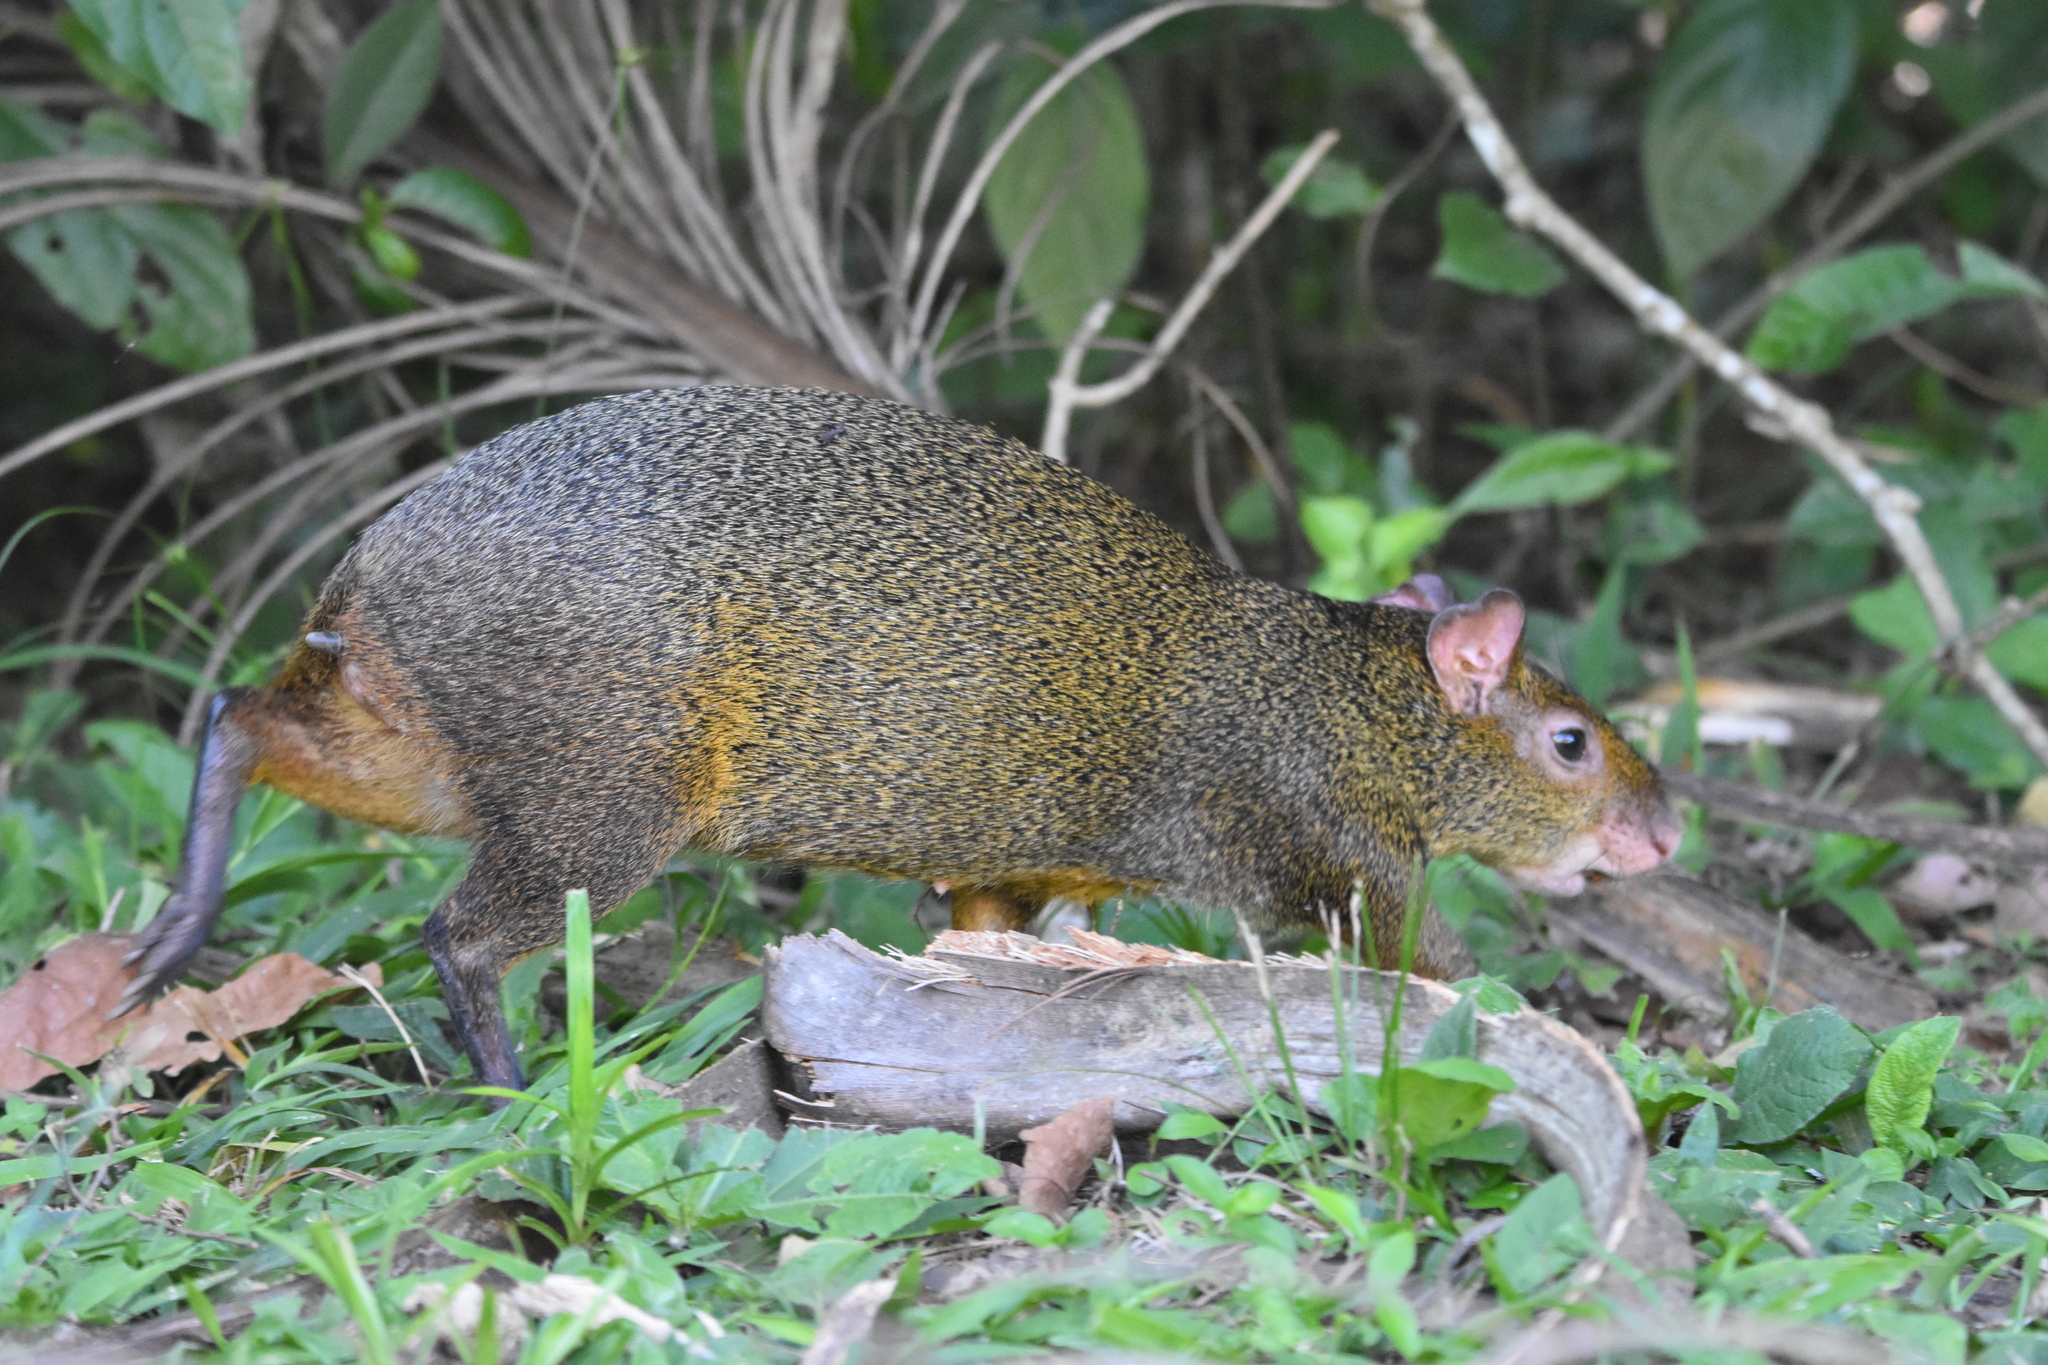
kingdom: Animalia
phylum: Chordata
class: Mammalia
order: Rodentia
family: Dasyproctidae
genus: Dasyprocta
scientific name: Dasyprocta azarae
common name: Azara's agouti
